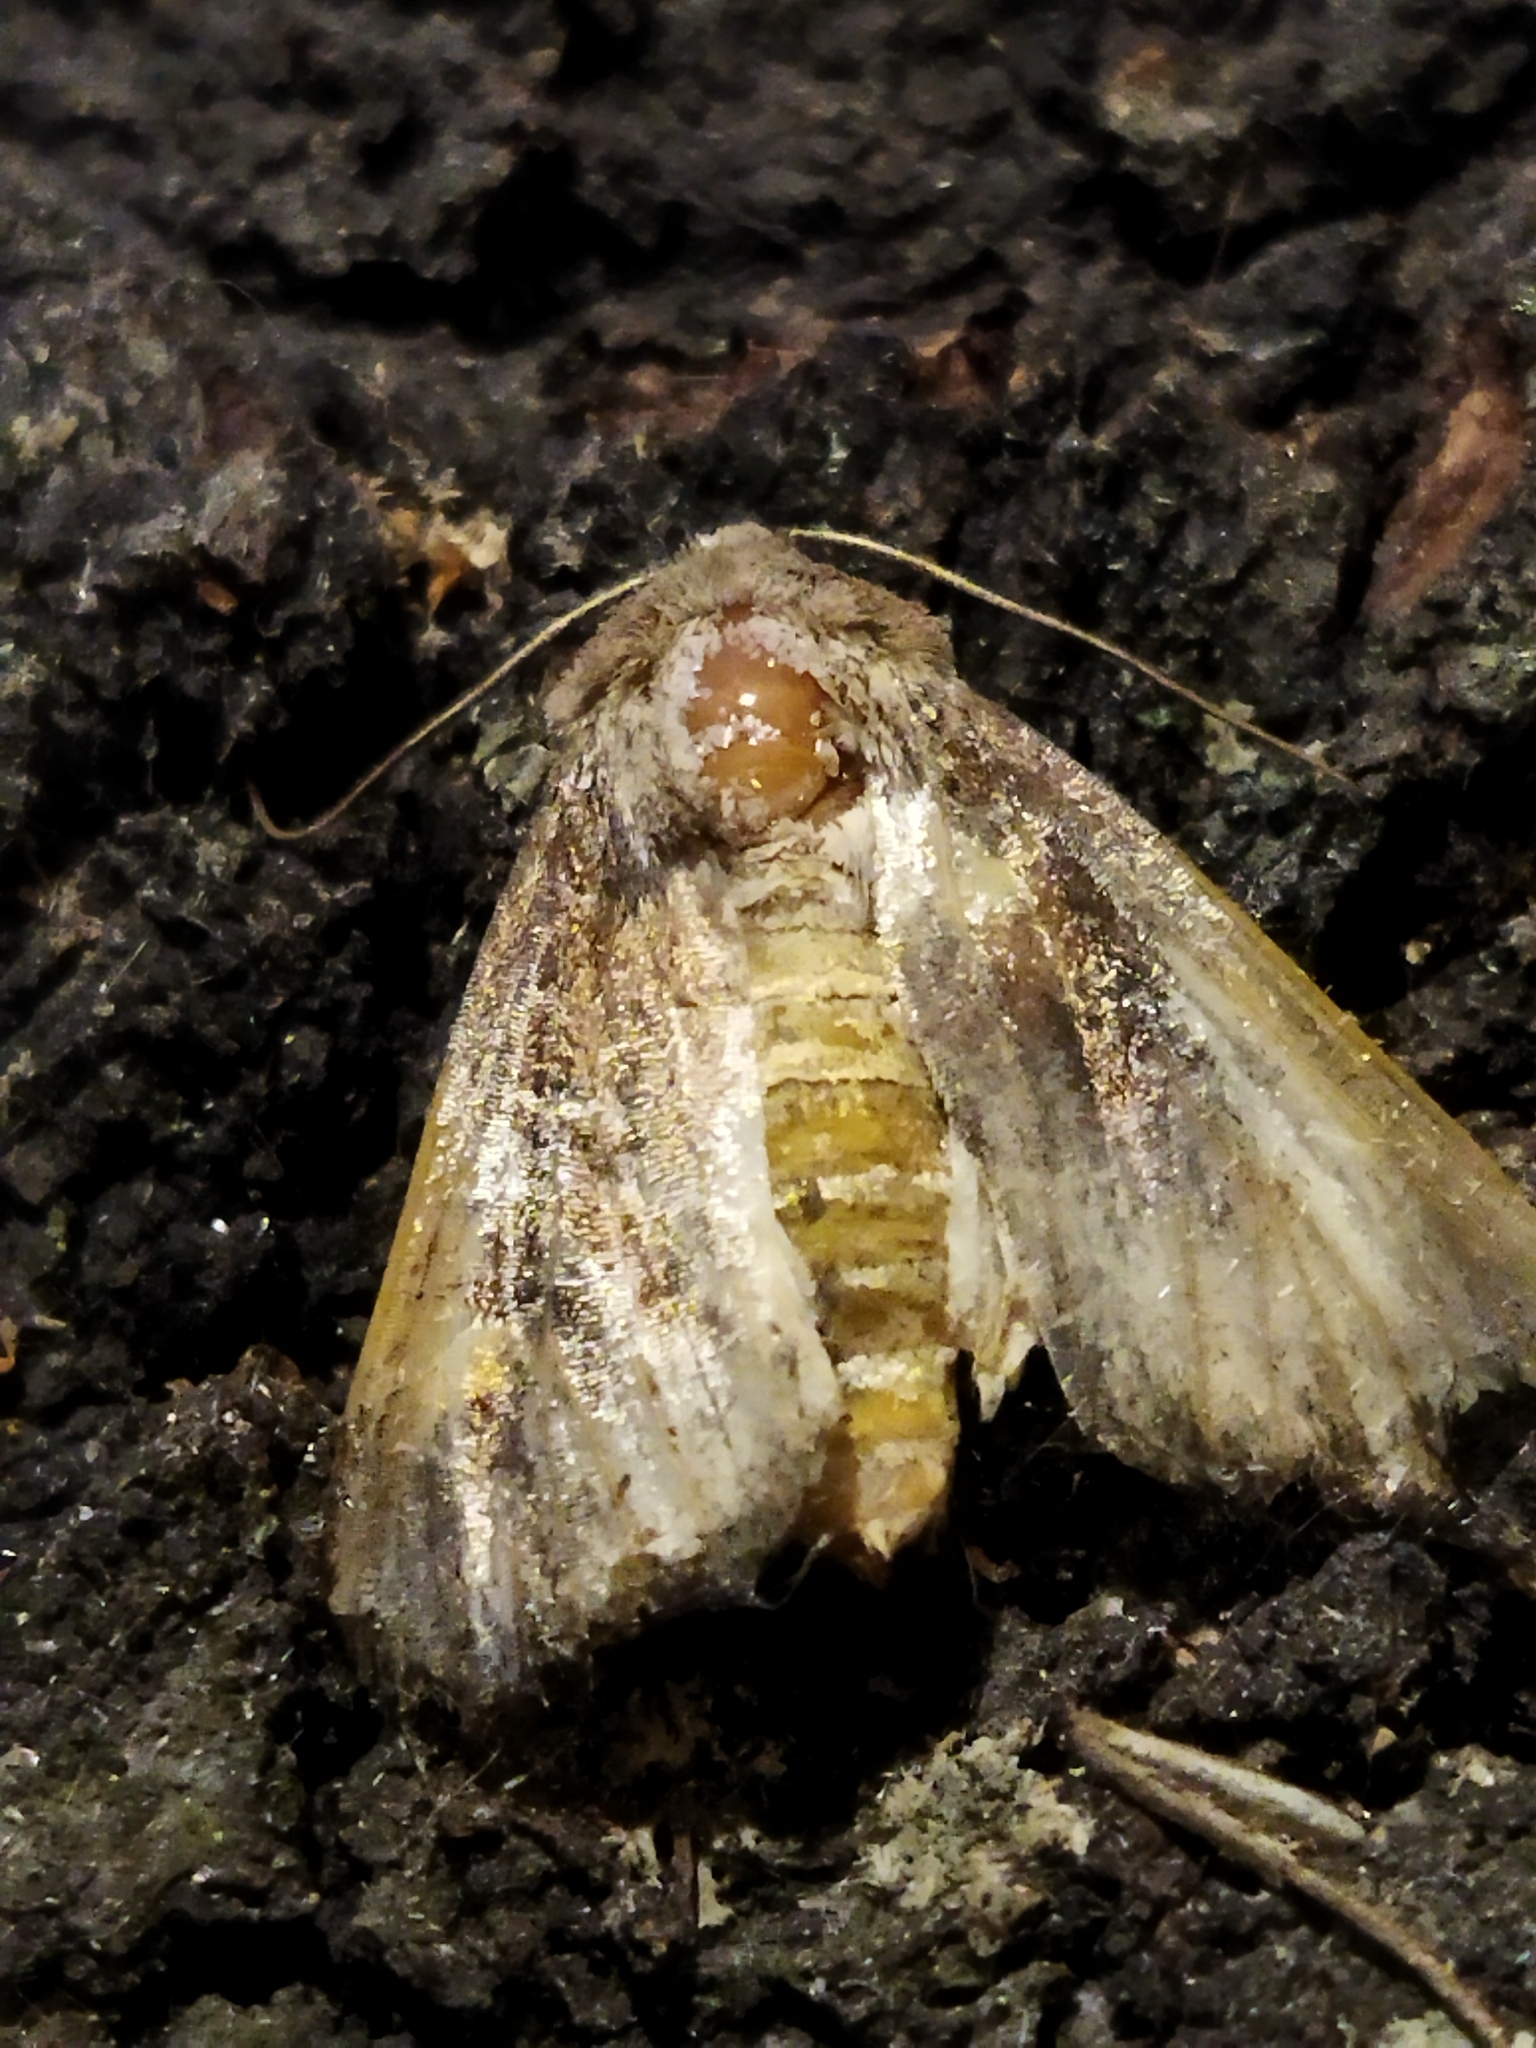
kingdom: Animalia
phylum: Arthropoda
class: Insecta
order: Lepidoptera
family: Noctuidae
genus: Lacanobia
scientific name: Lacanobia oleracea
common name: Bright-line brown-eye
